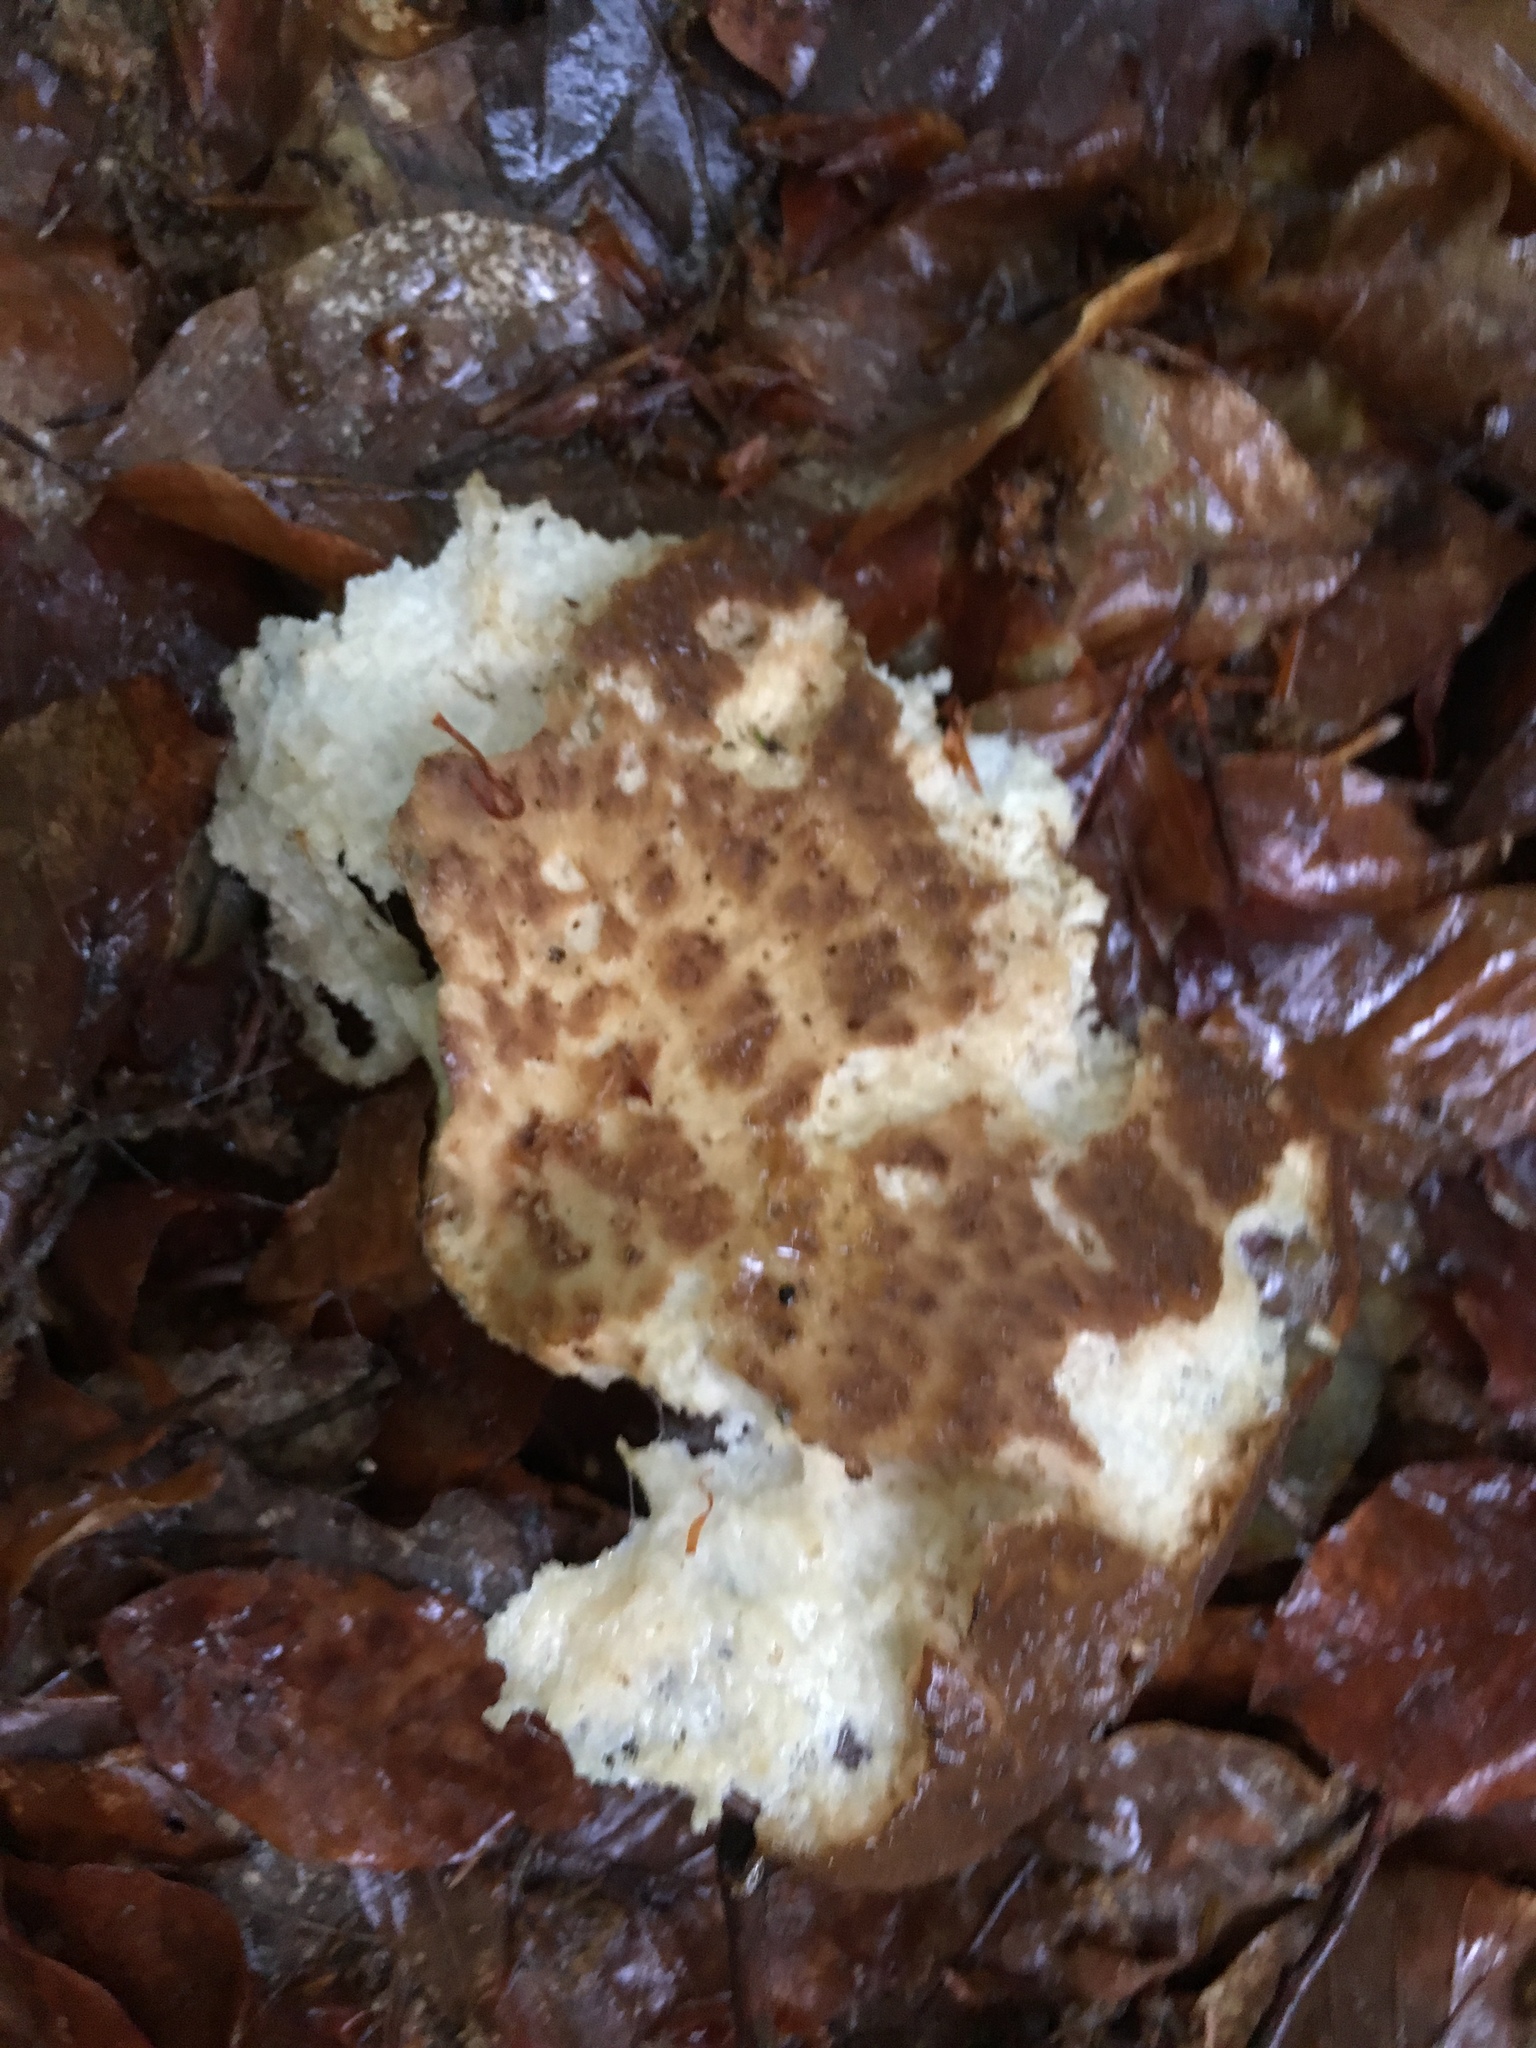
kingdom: Fungi
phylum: Basidiomycota
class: Agaricomycetes
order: Polyporales
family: Polyporaceae
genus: Cerioporus
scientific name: Cerioporus squamosus
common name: Dryad's saddle
